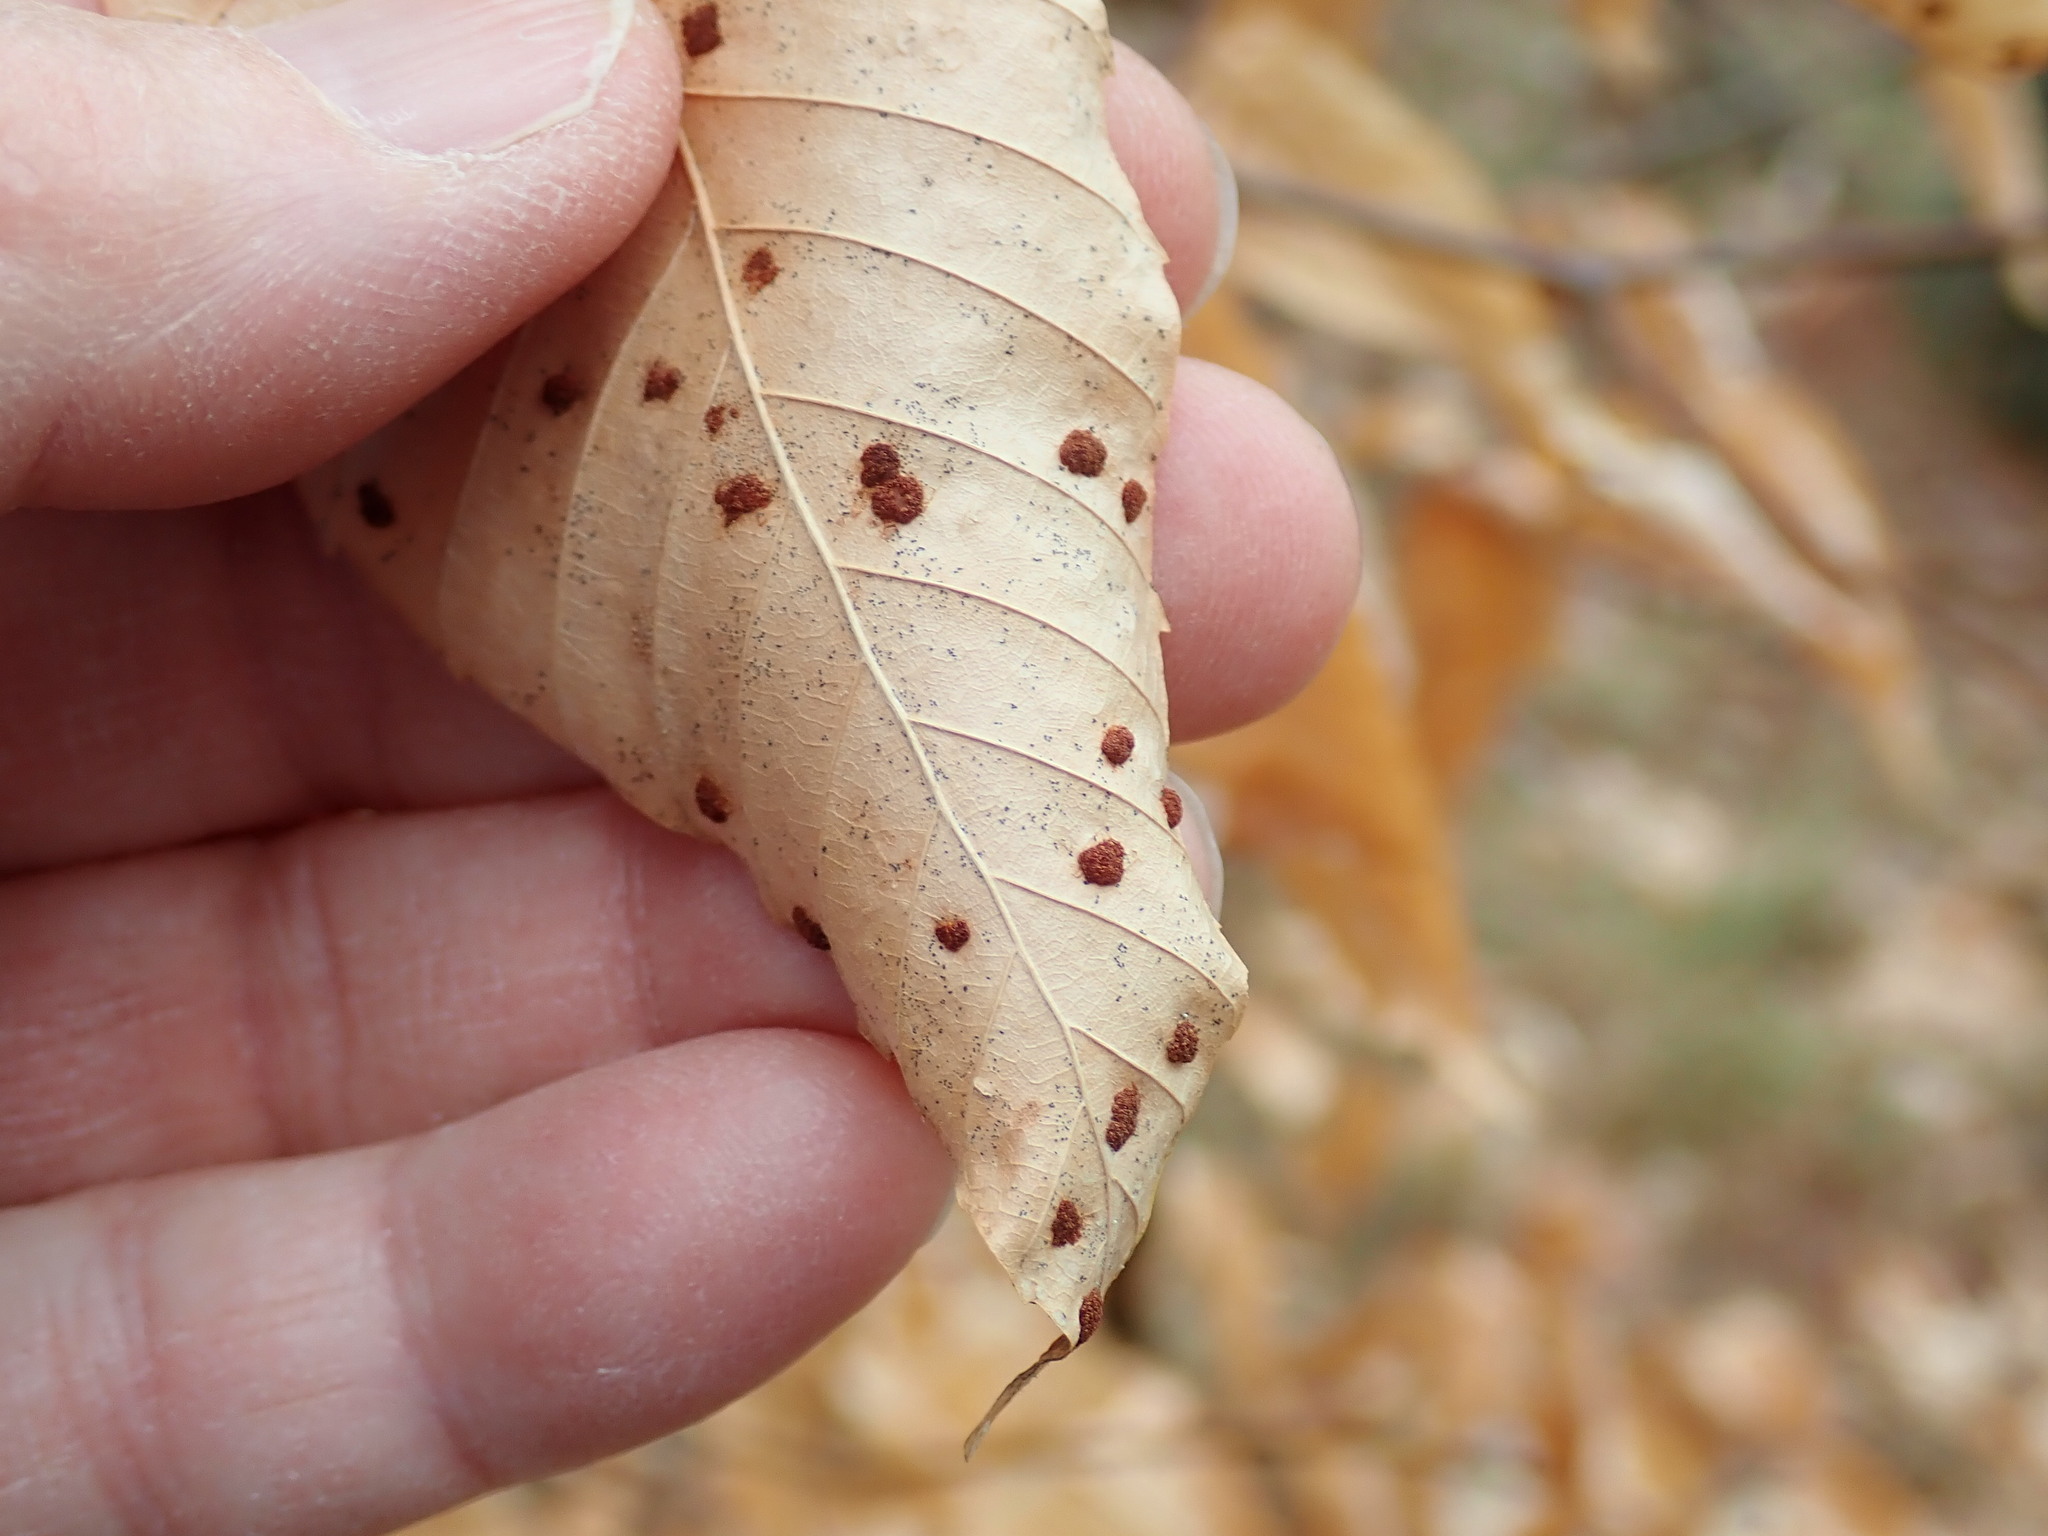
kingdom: Animalia
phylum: Arthropoda
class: Arachnida
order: Trombidiformes
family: Eriophyidae
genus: Acalitus
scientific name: Acalitus
